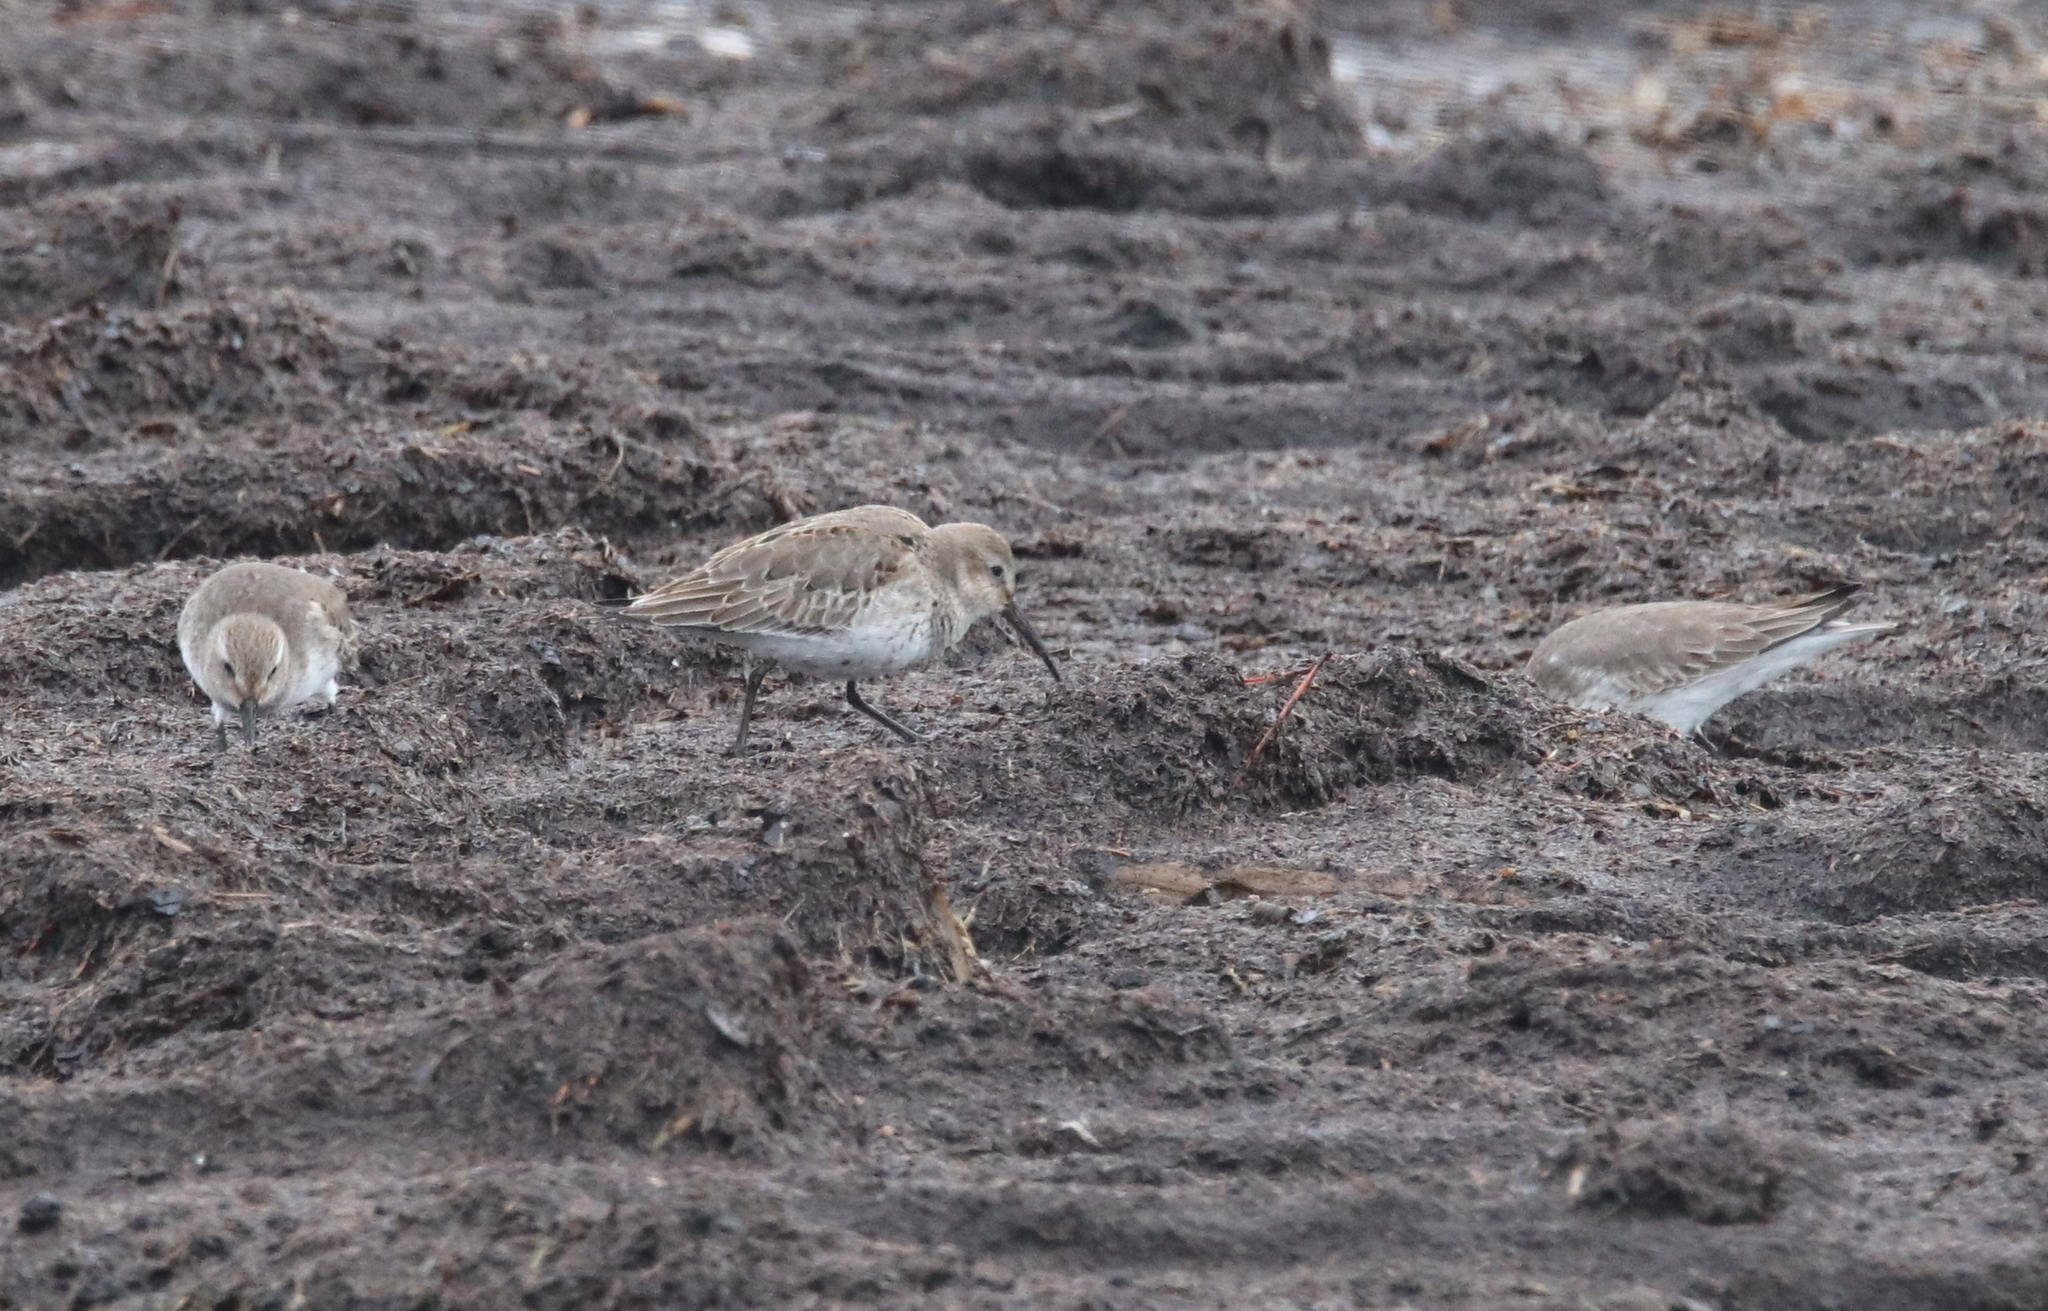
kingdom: Animalia
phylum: Chordata
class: Aves
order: Charadriiformes
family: Scolopacidae
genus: Calidris
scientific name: Calidris alpina
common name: Dunlin
